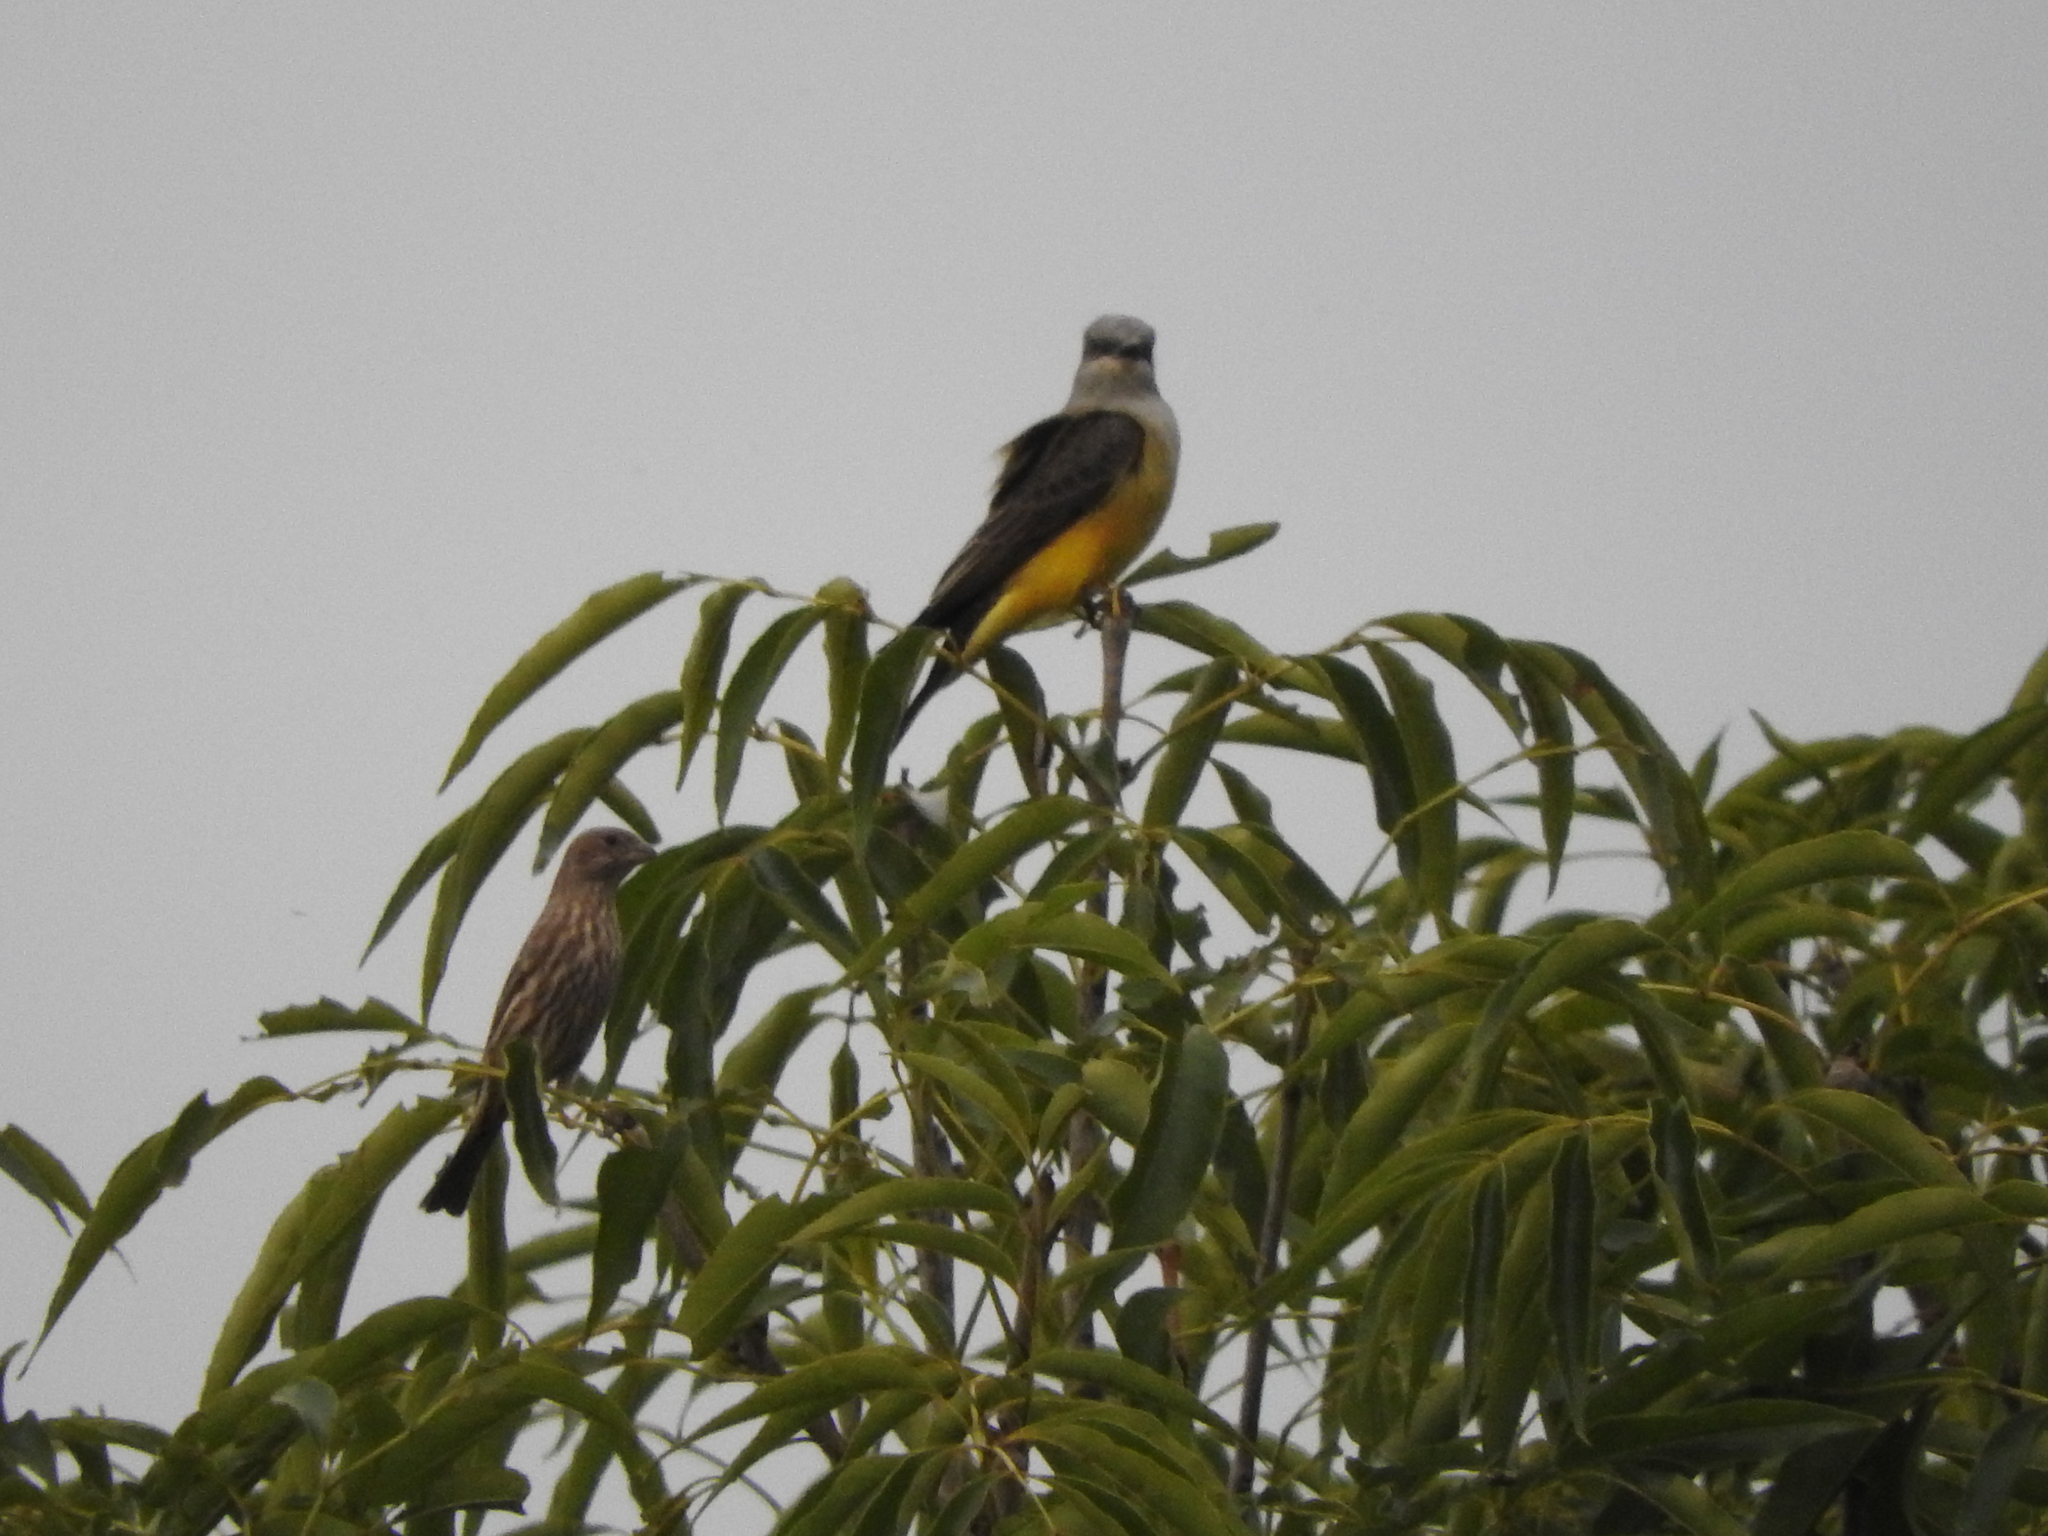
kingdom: Animalia
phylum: Chordata
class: Aves
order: Passeriformes
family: Fringillidae
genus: Haemorhous
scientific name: Haemorhous mexicanus
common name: House finch
